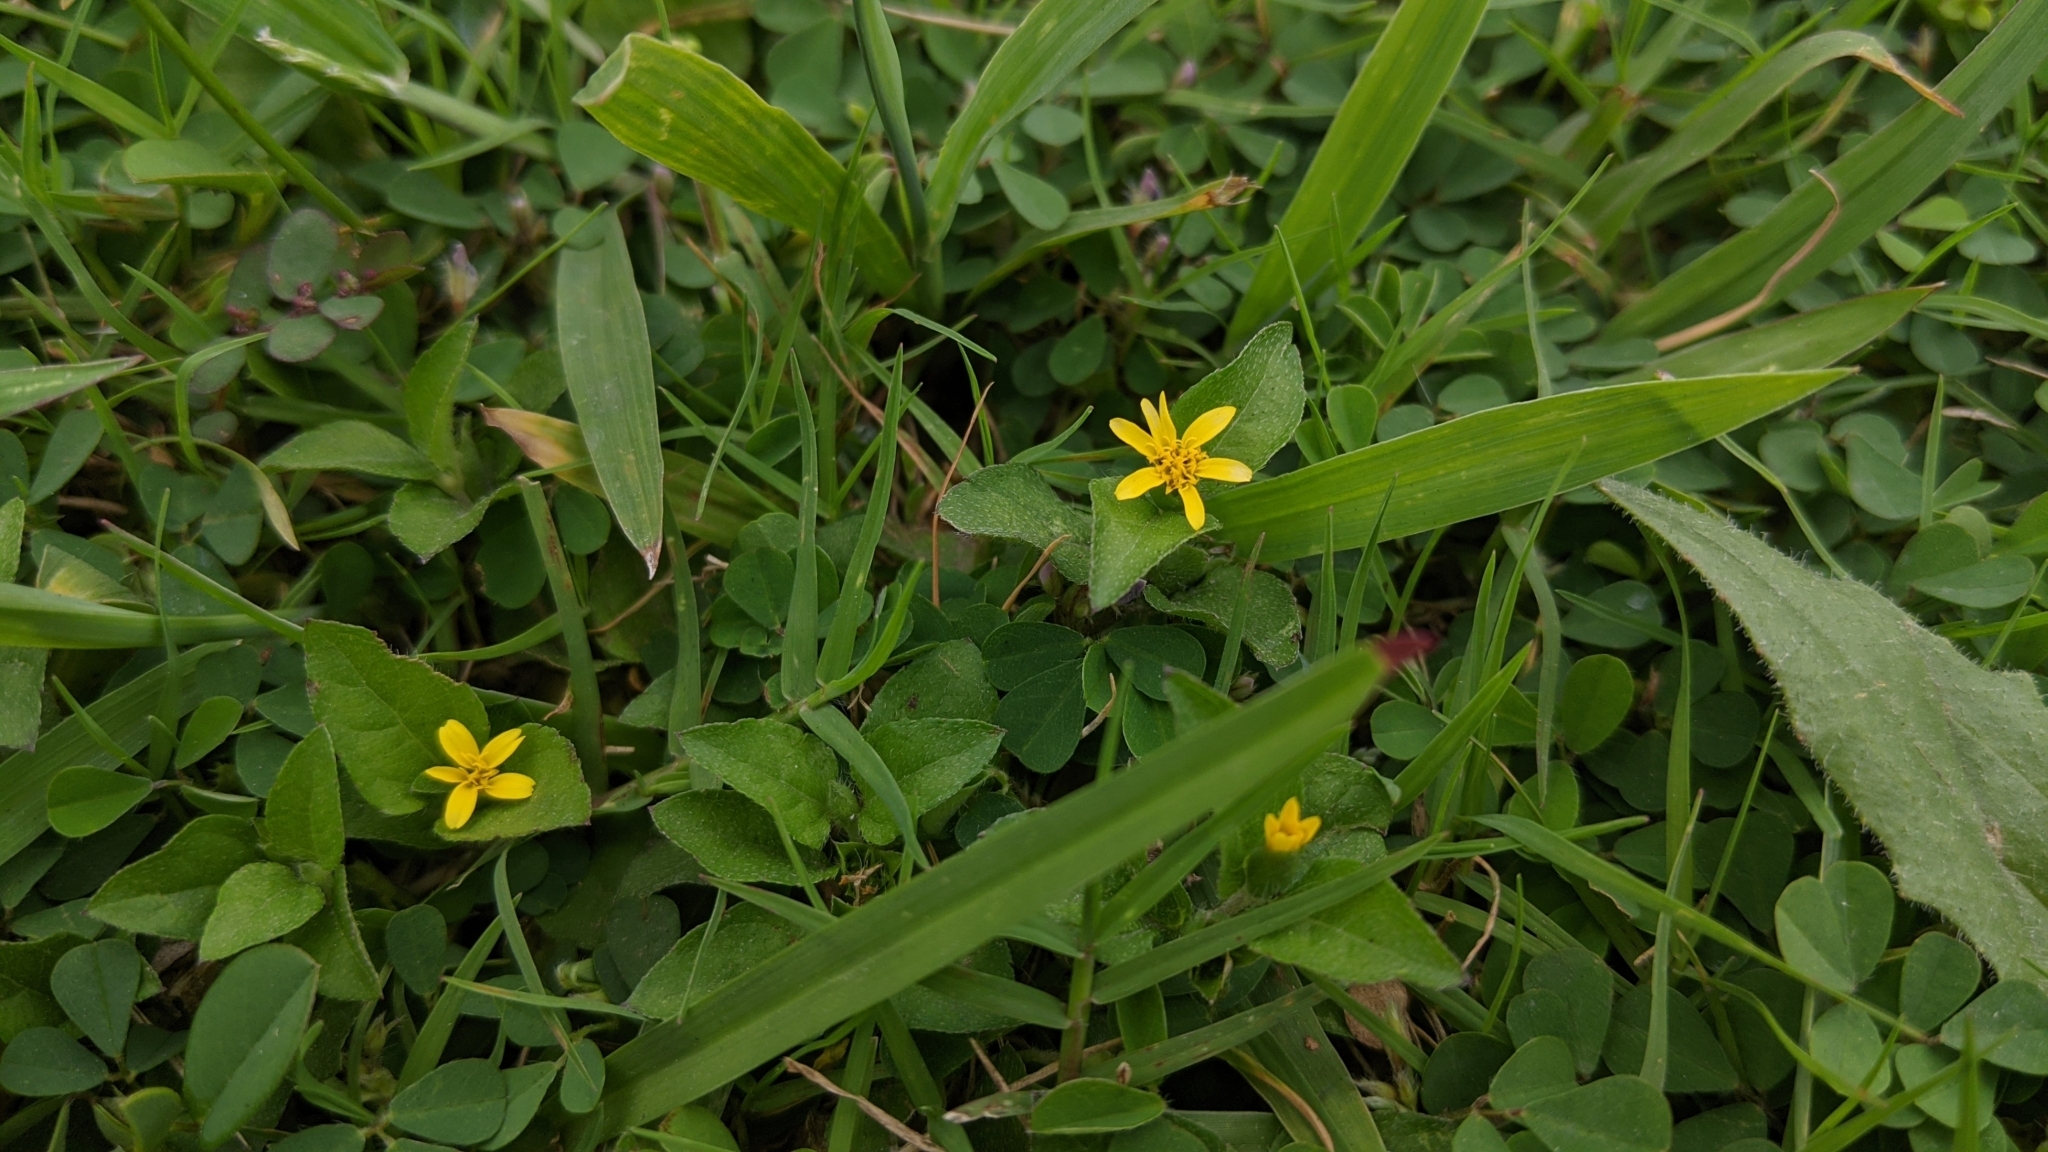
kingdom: Plantae
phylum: Tracheophyta
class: Magnoliopsida
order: Asterales
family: Asteraceae
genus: Calyptocarpus
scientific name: Calyptocarpus vialis
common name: Straggler daisy
